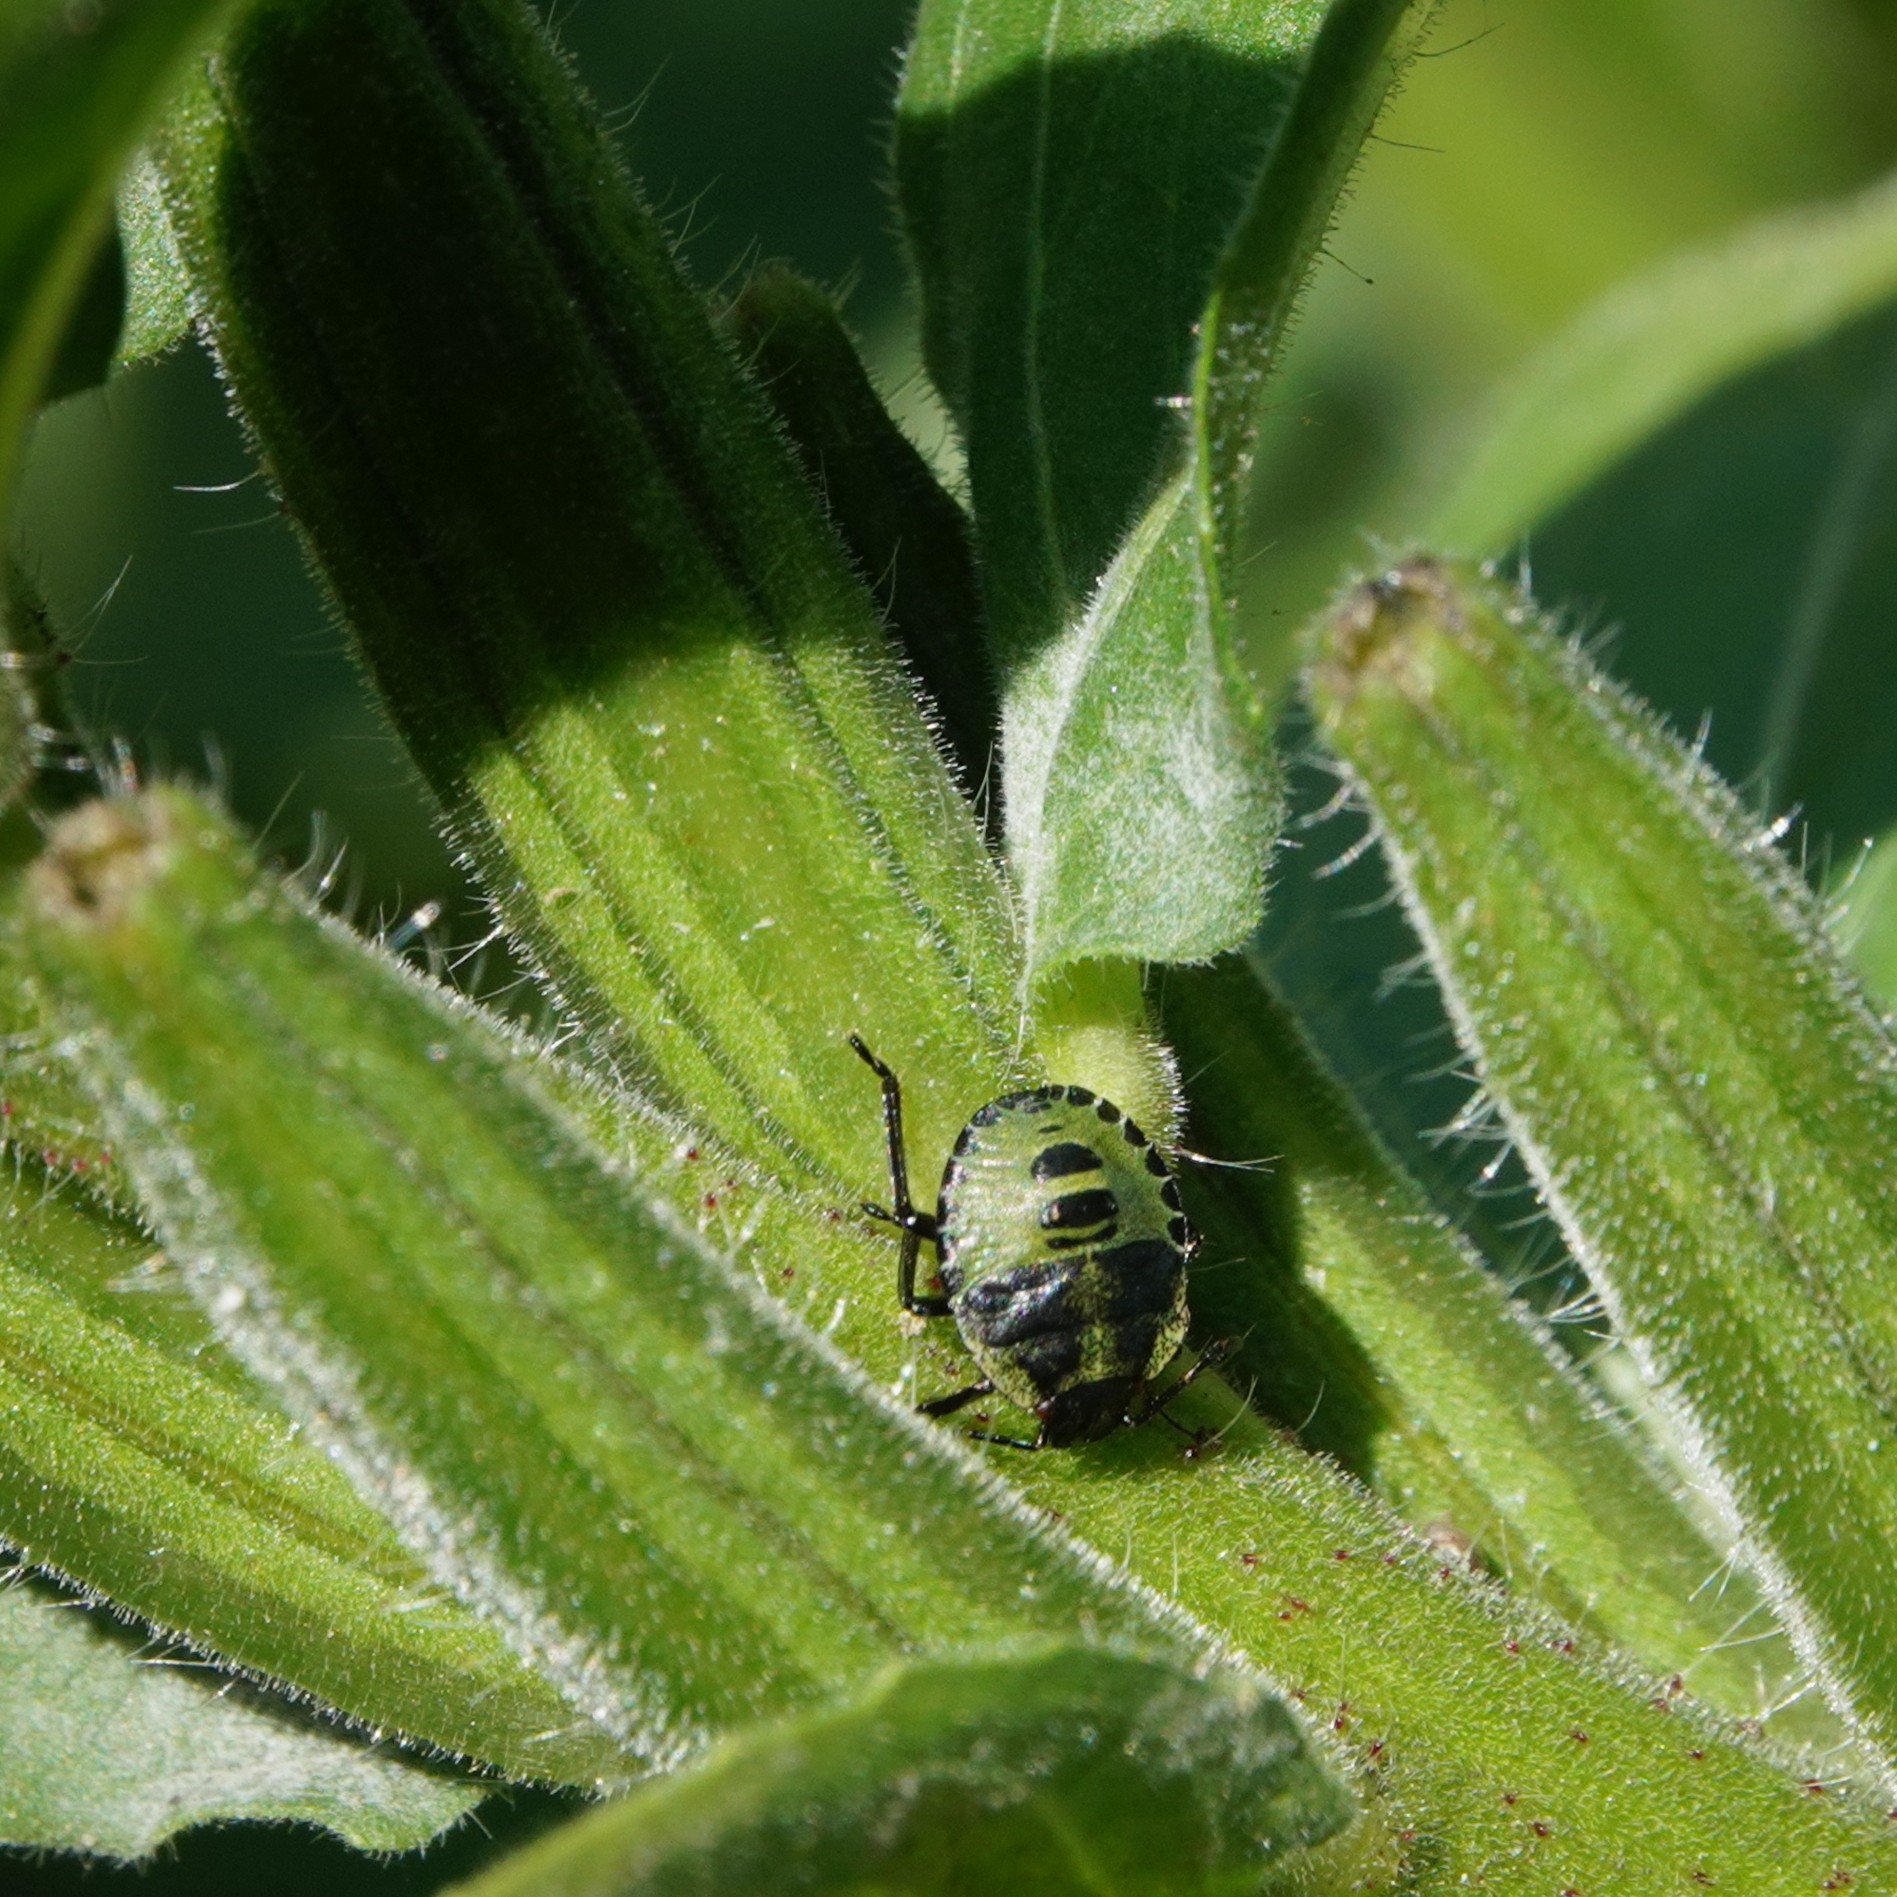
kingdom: Animalia
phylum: Arthropoda
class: Insecta
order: Hemiptera
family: Pentatomidae
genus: Palomena
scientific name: Palomena prasina
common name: Green shieldbug
